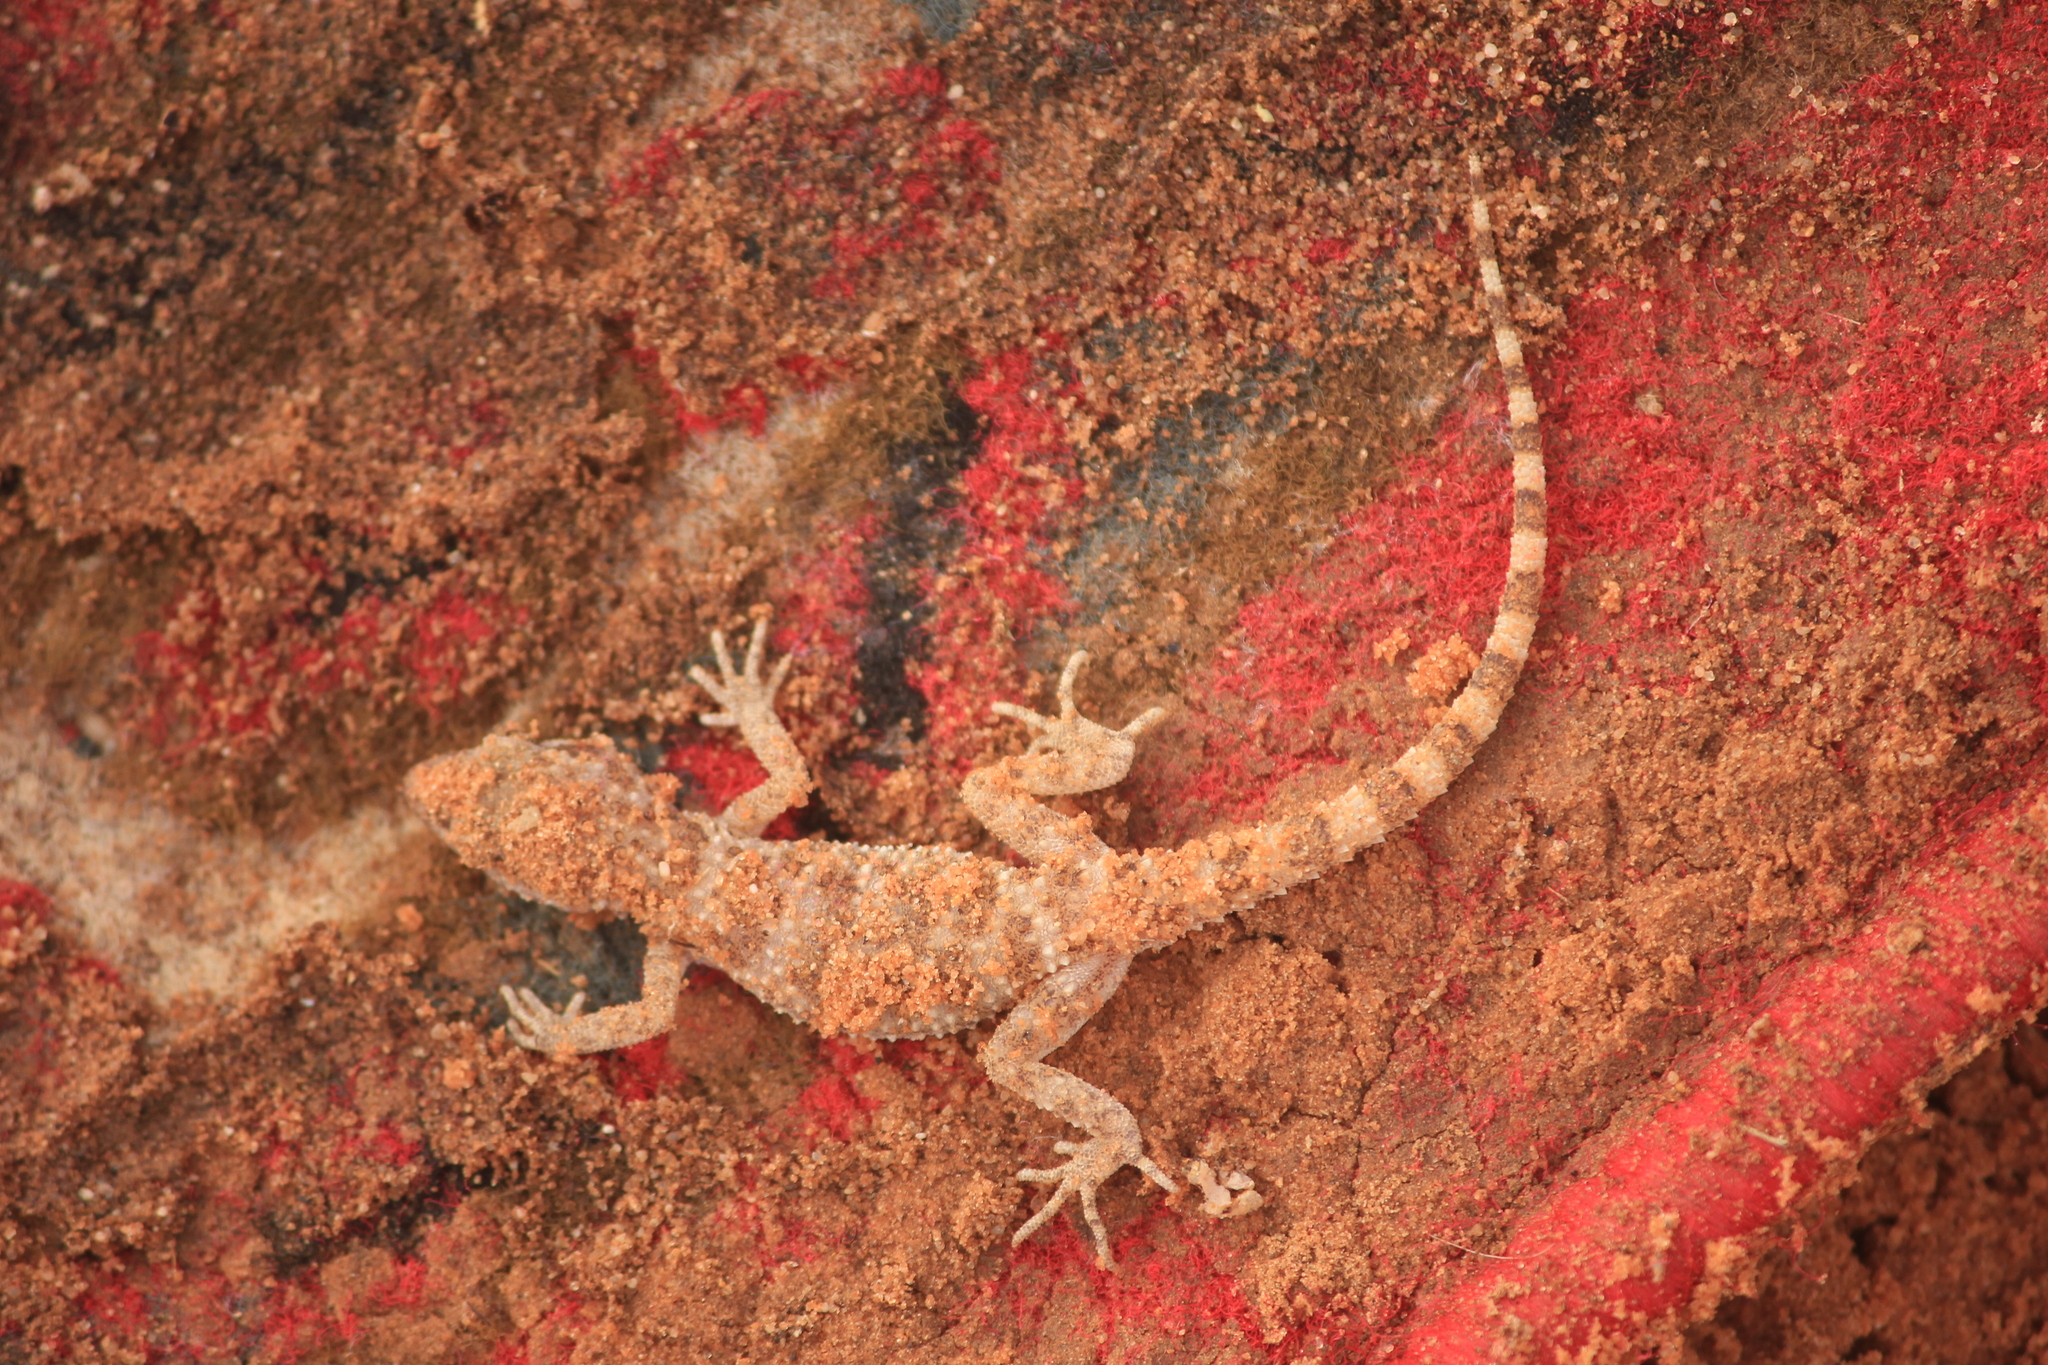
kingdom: Animalia
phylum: Chordata
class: Squamata
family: Gekkonidae
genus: Bunopus
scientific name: Bunopus tuberculatus
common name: Southern tuberculated gecko
